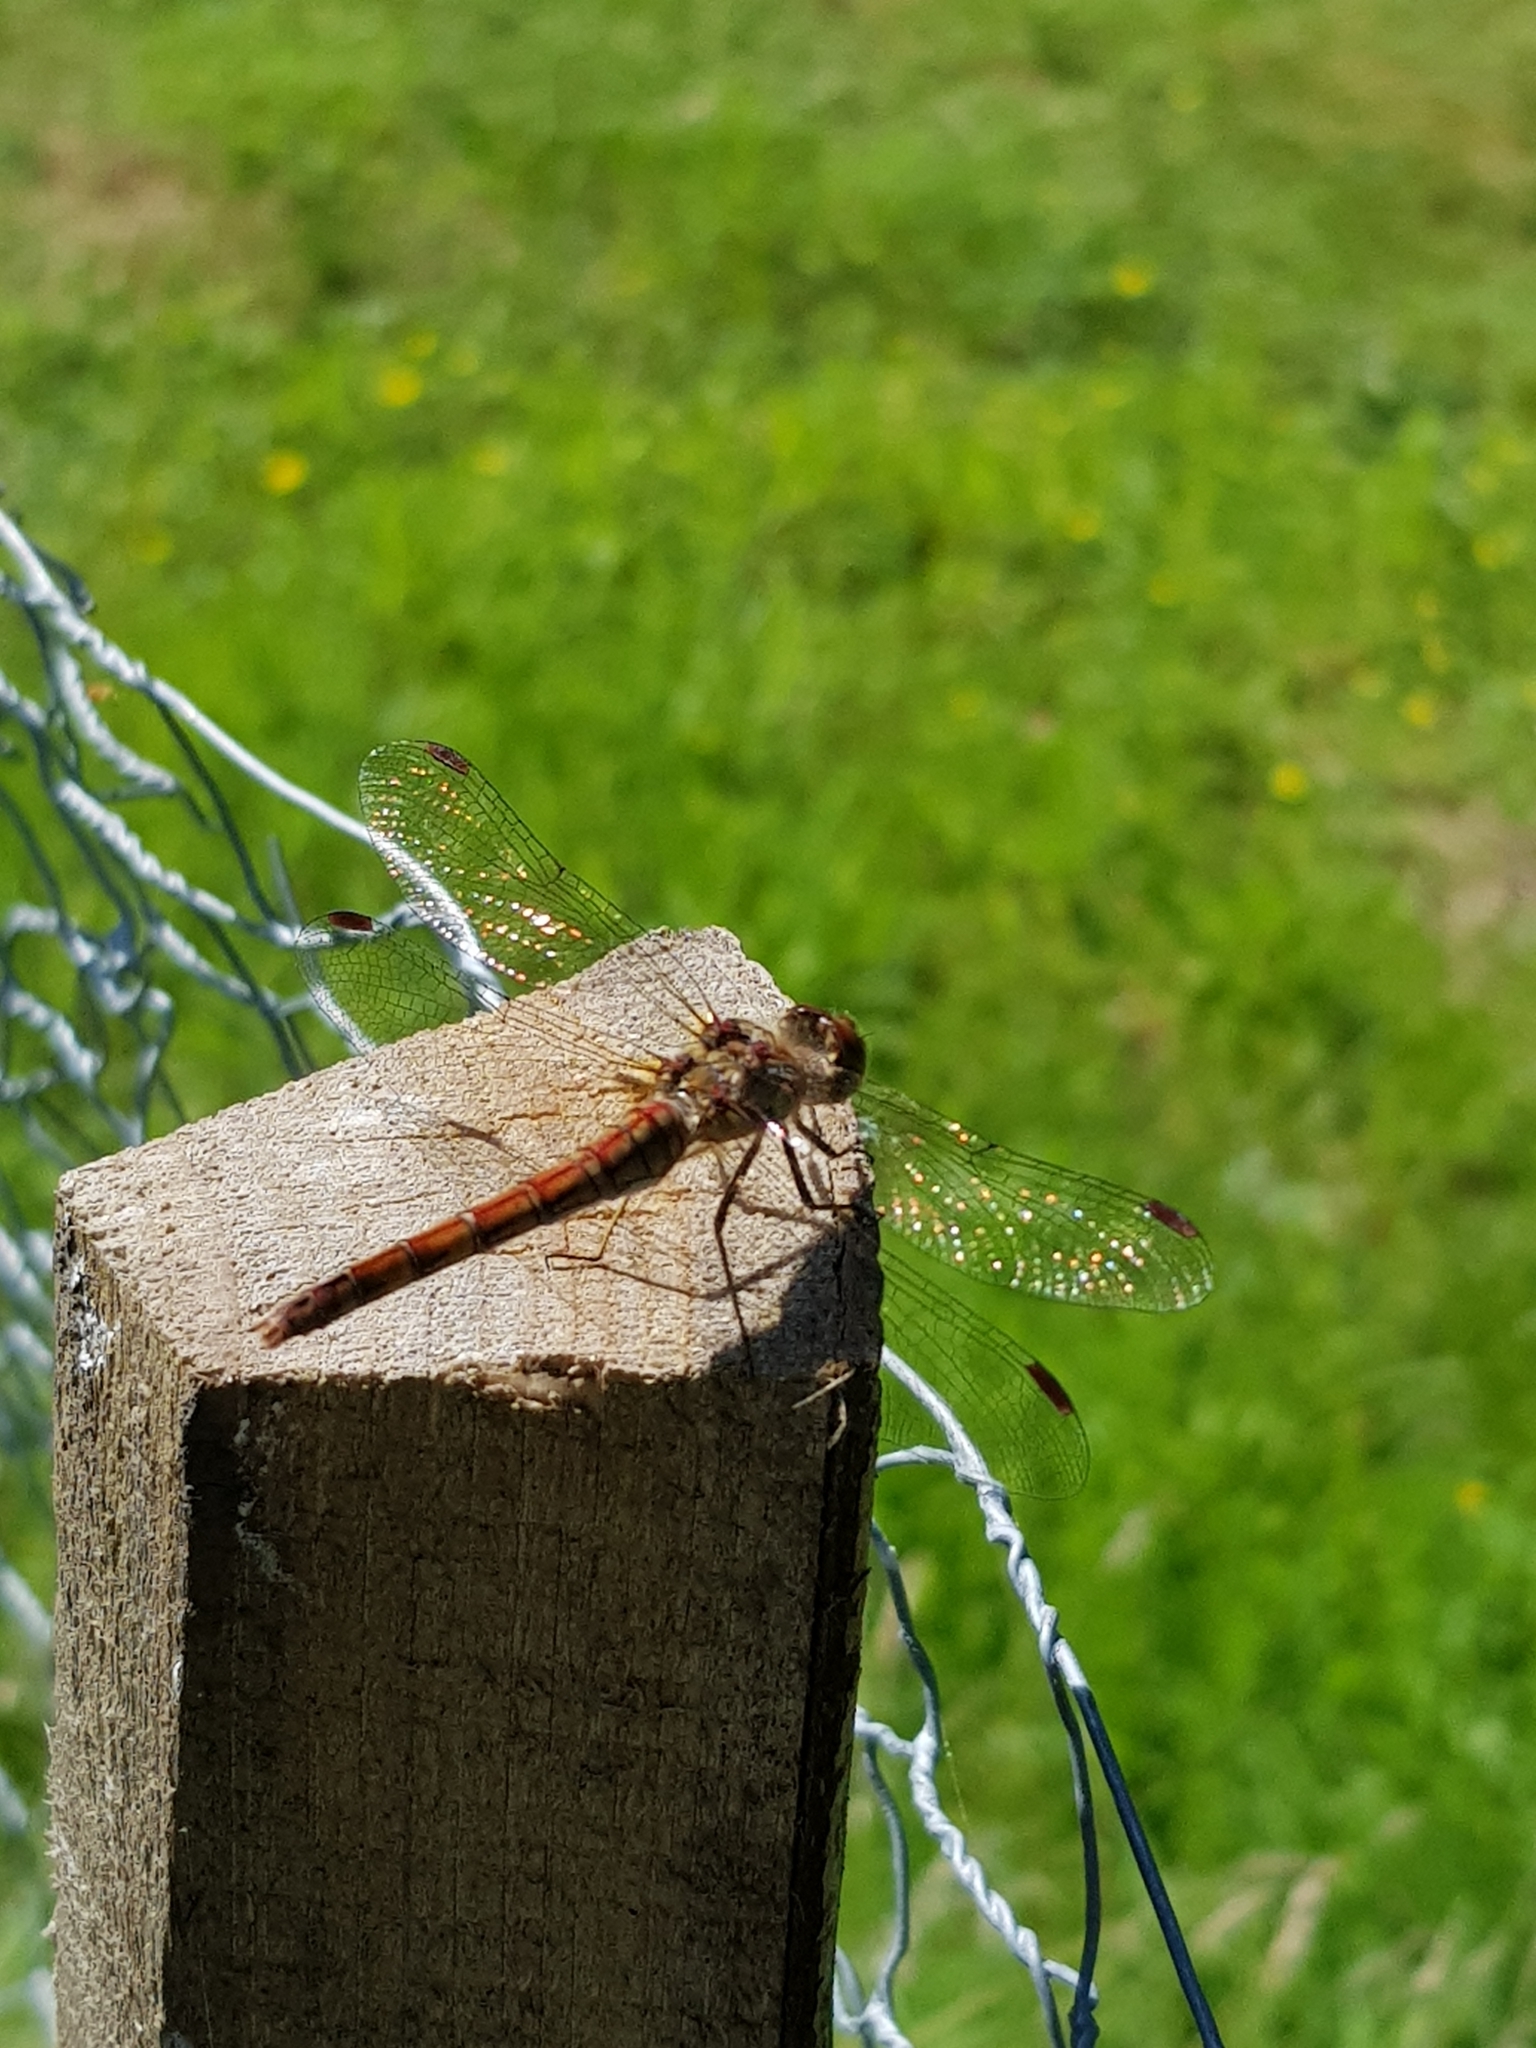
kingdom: Animalia
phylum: Arthropoda
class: Insecta
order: Odonata
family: Libellulidae
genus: Sympetrum
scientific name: Sympetrum striolatum
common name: Common darter
